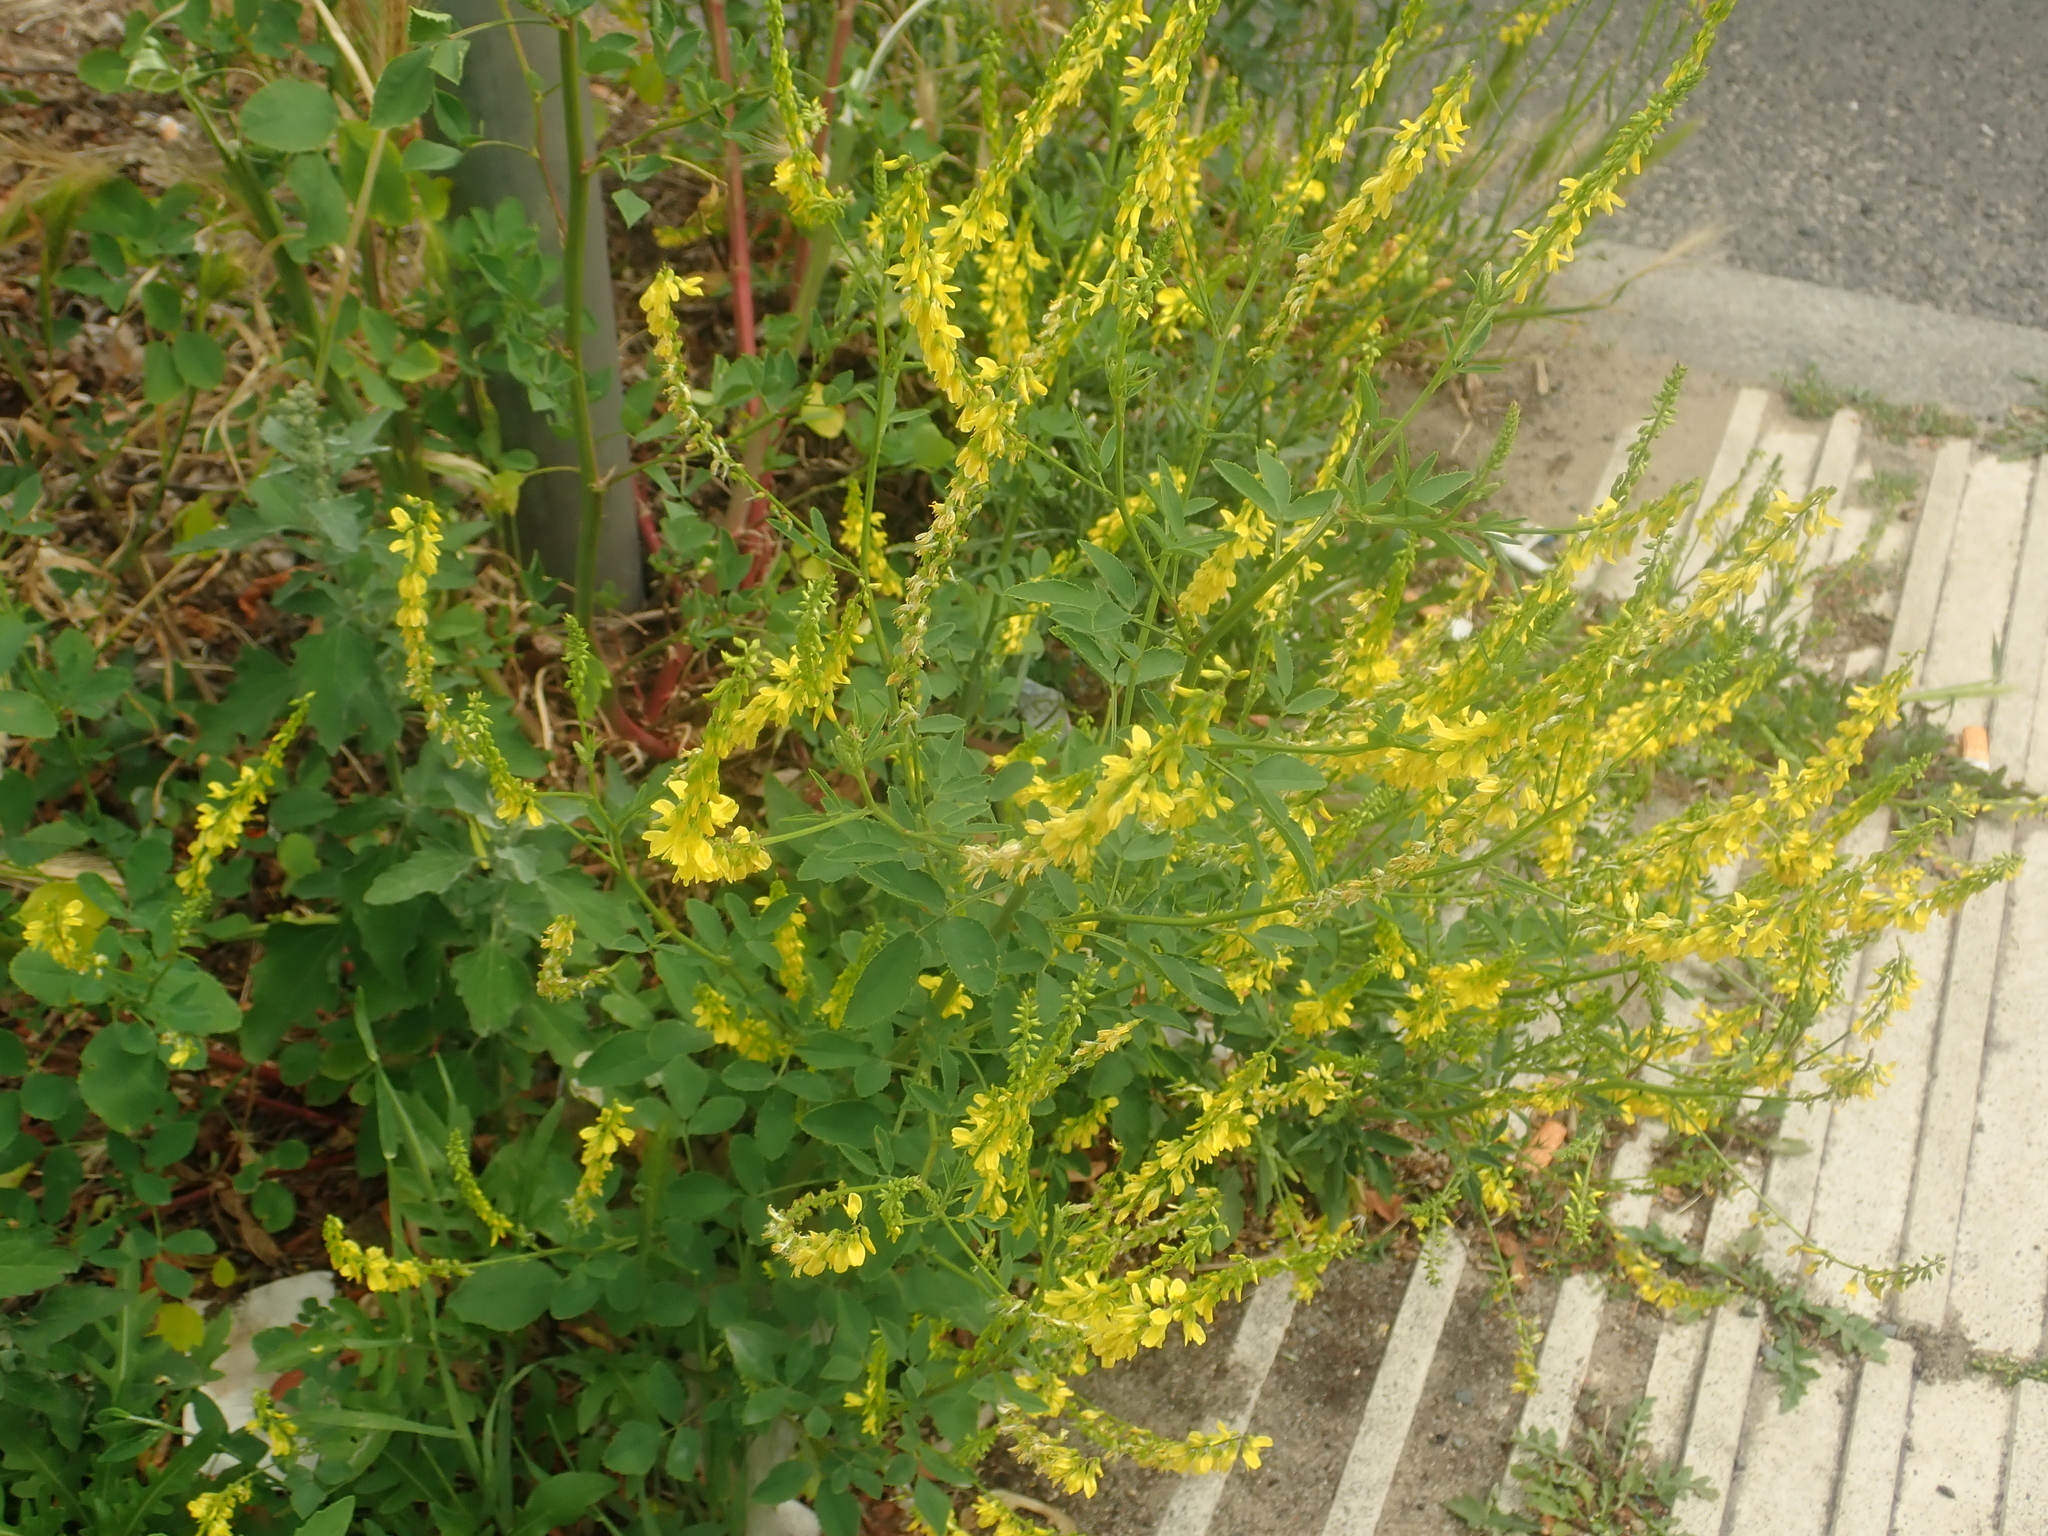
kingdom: Plantae
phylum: Tracheophyta
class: Magnoliopsida
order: Fabales
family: Fabaceae
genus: Melilotus
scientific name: Melilotus officinalis
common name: Sweetclover
